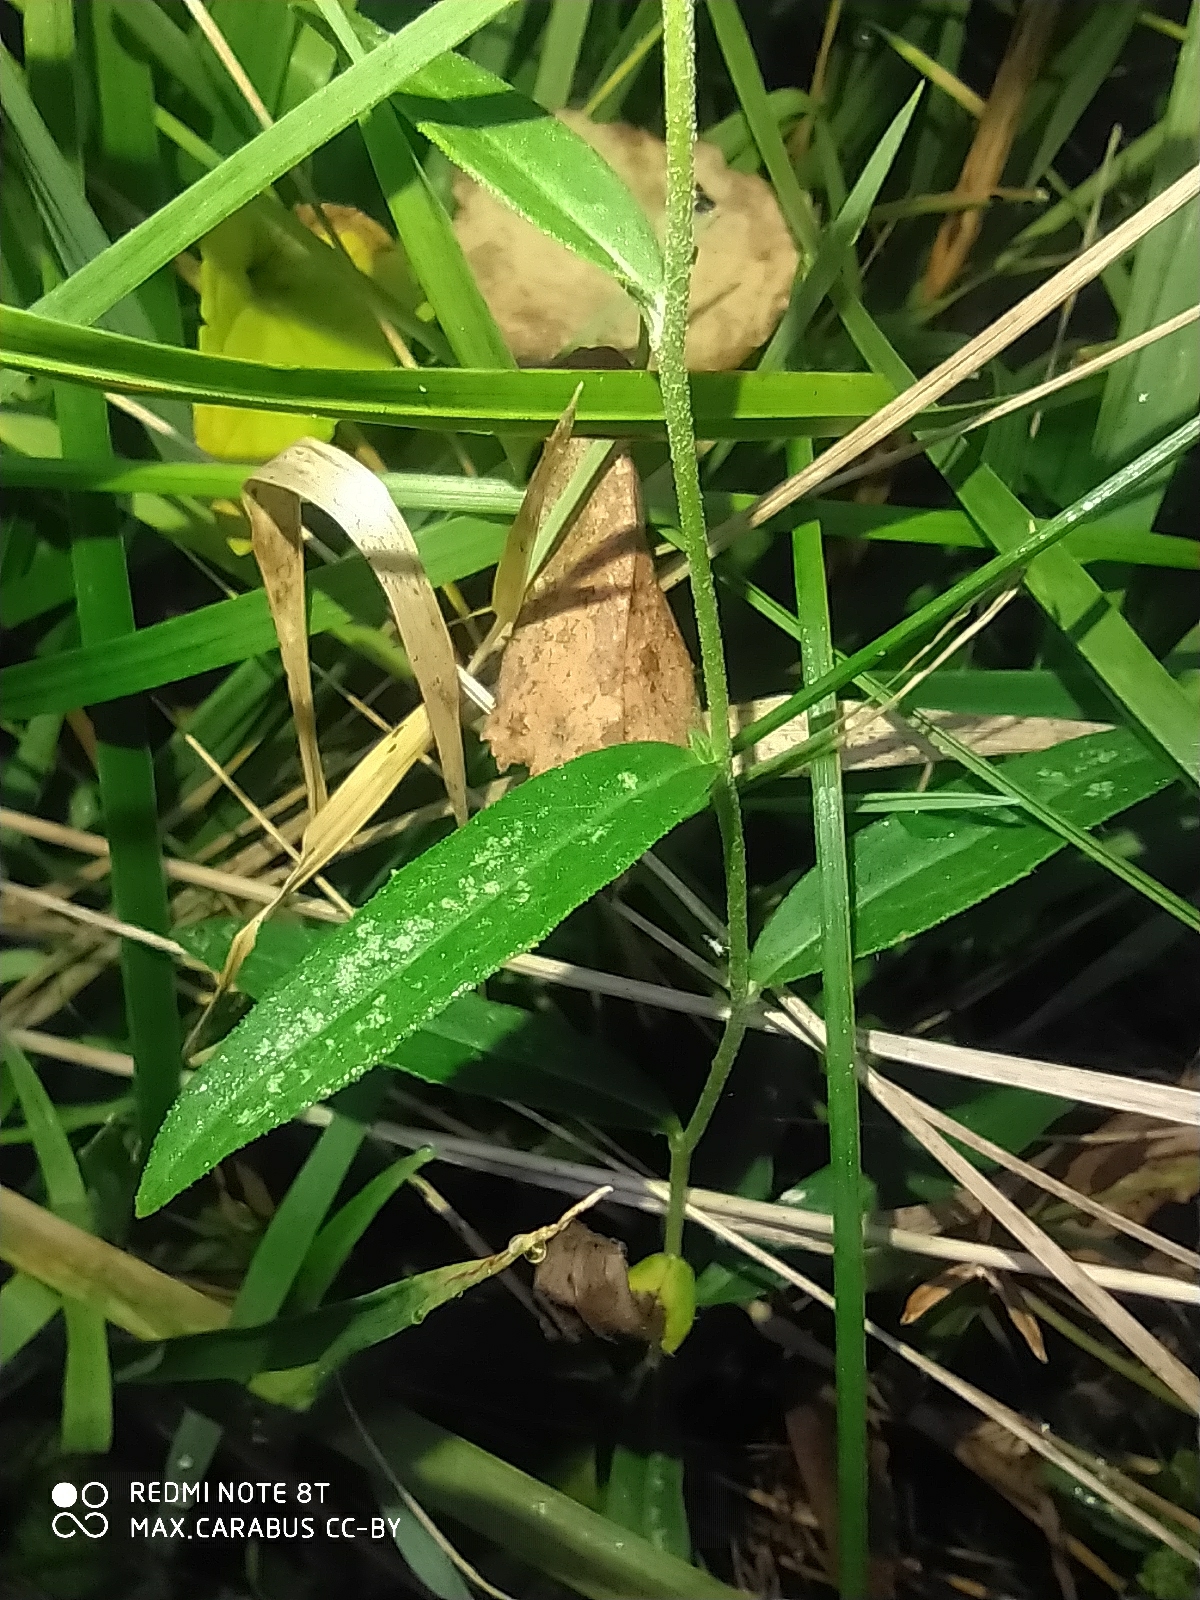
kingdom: Plantae
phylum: Tracheophyta
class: Magnoliopsida
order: Asterales
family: Asteraceae
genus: Hieracium
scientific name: Hieracium umbellatum
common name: Northern hawkweed
